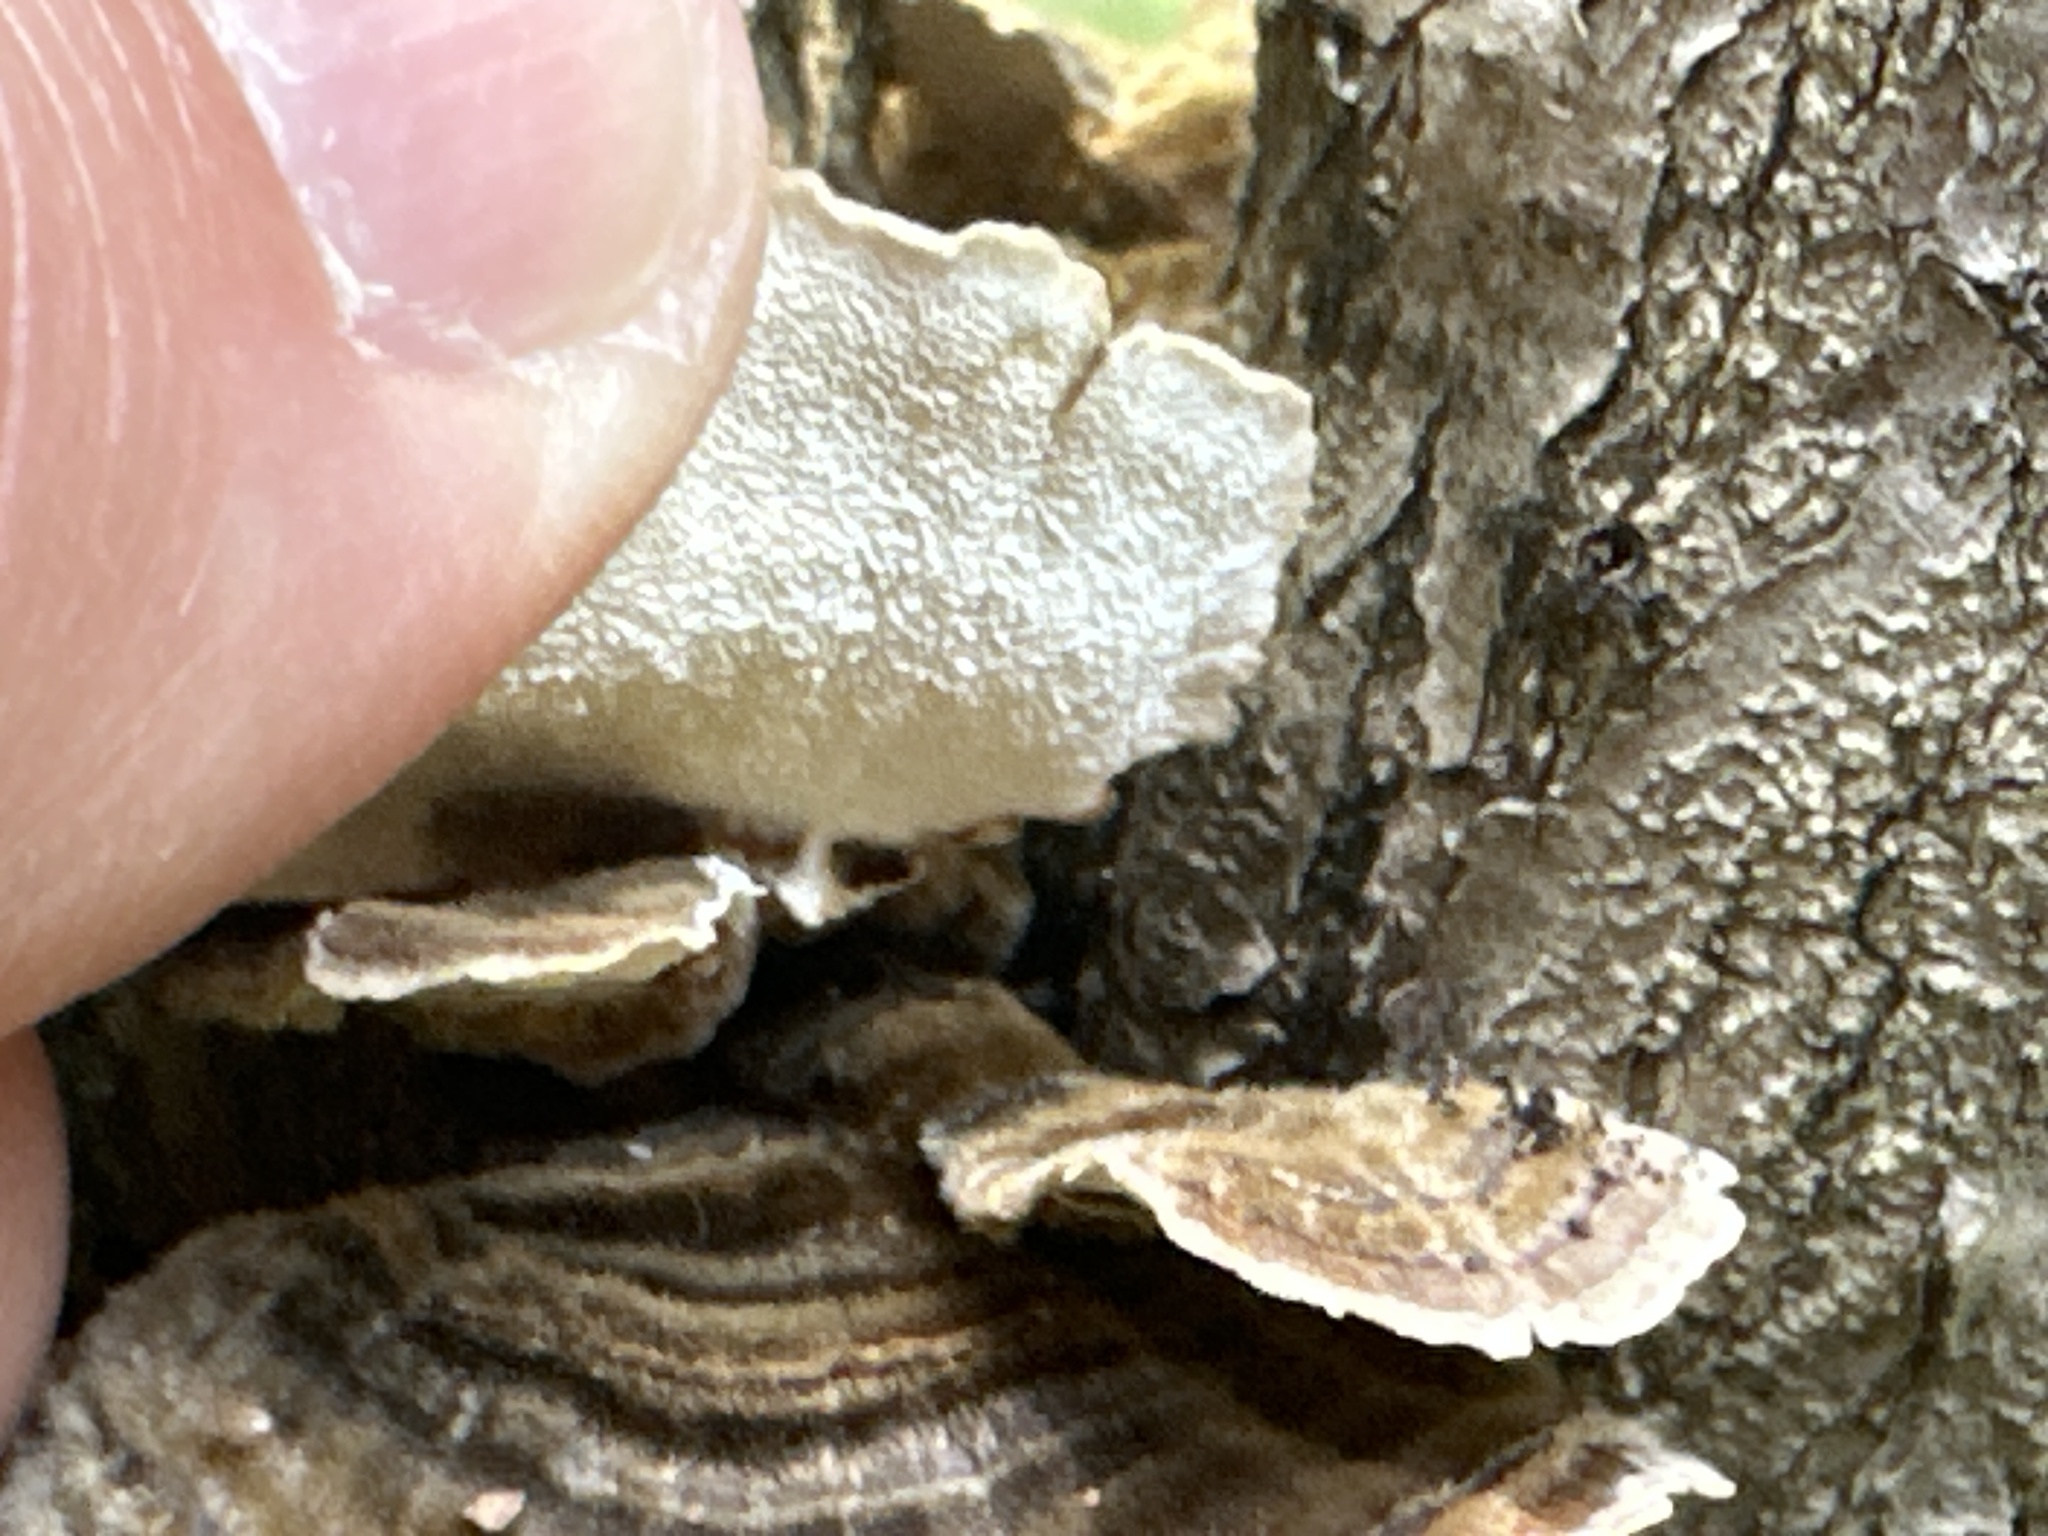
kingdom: Fungi
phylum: Basidiomycota
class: Agaricomycetes
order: Polyporales
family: Polyporaceae
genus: Trametes
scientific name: Trametes versicolor
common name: Turkeytail
